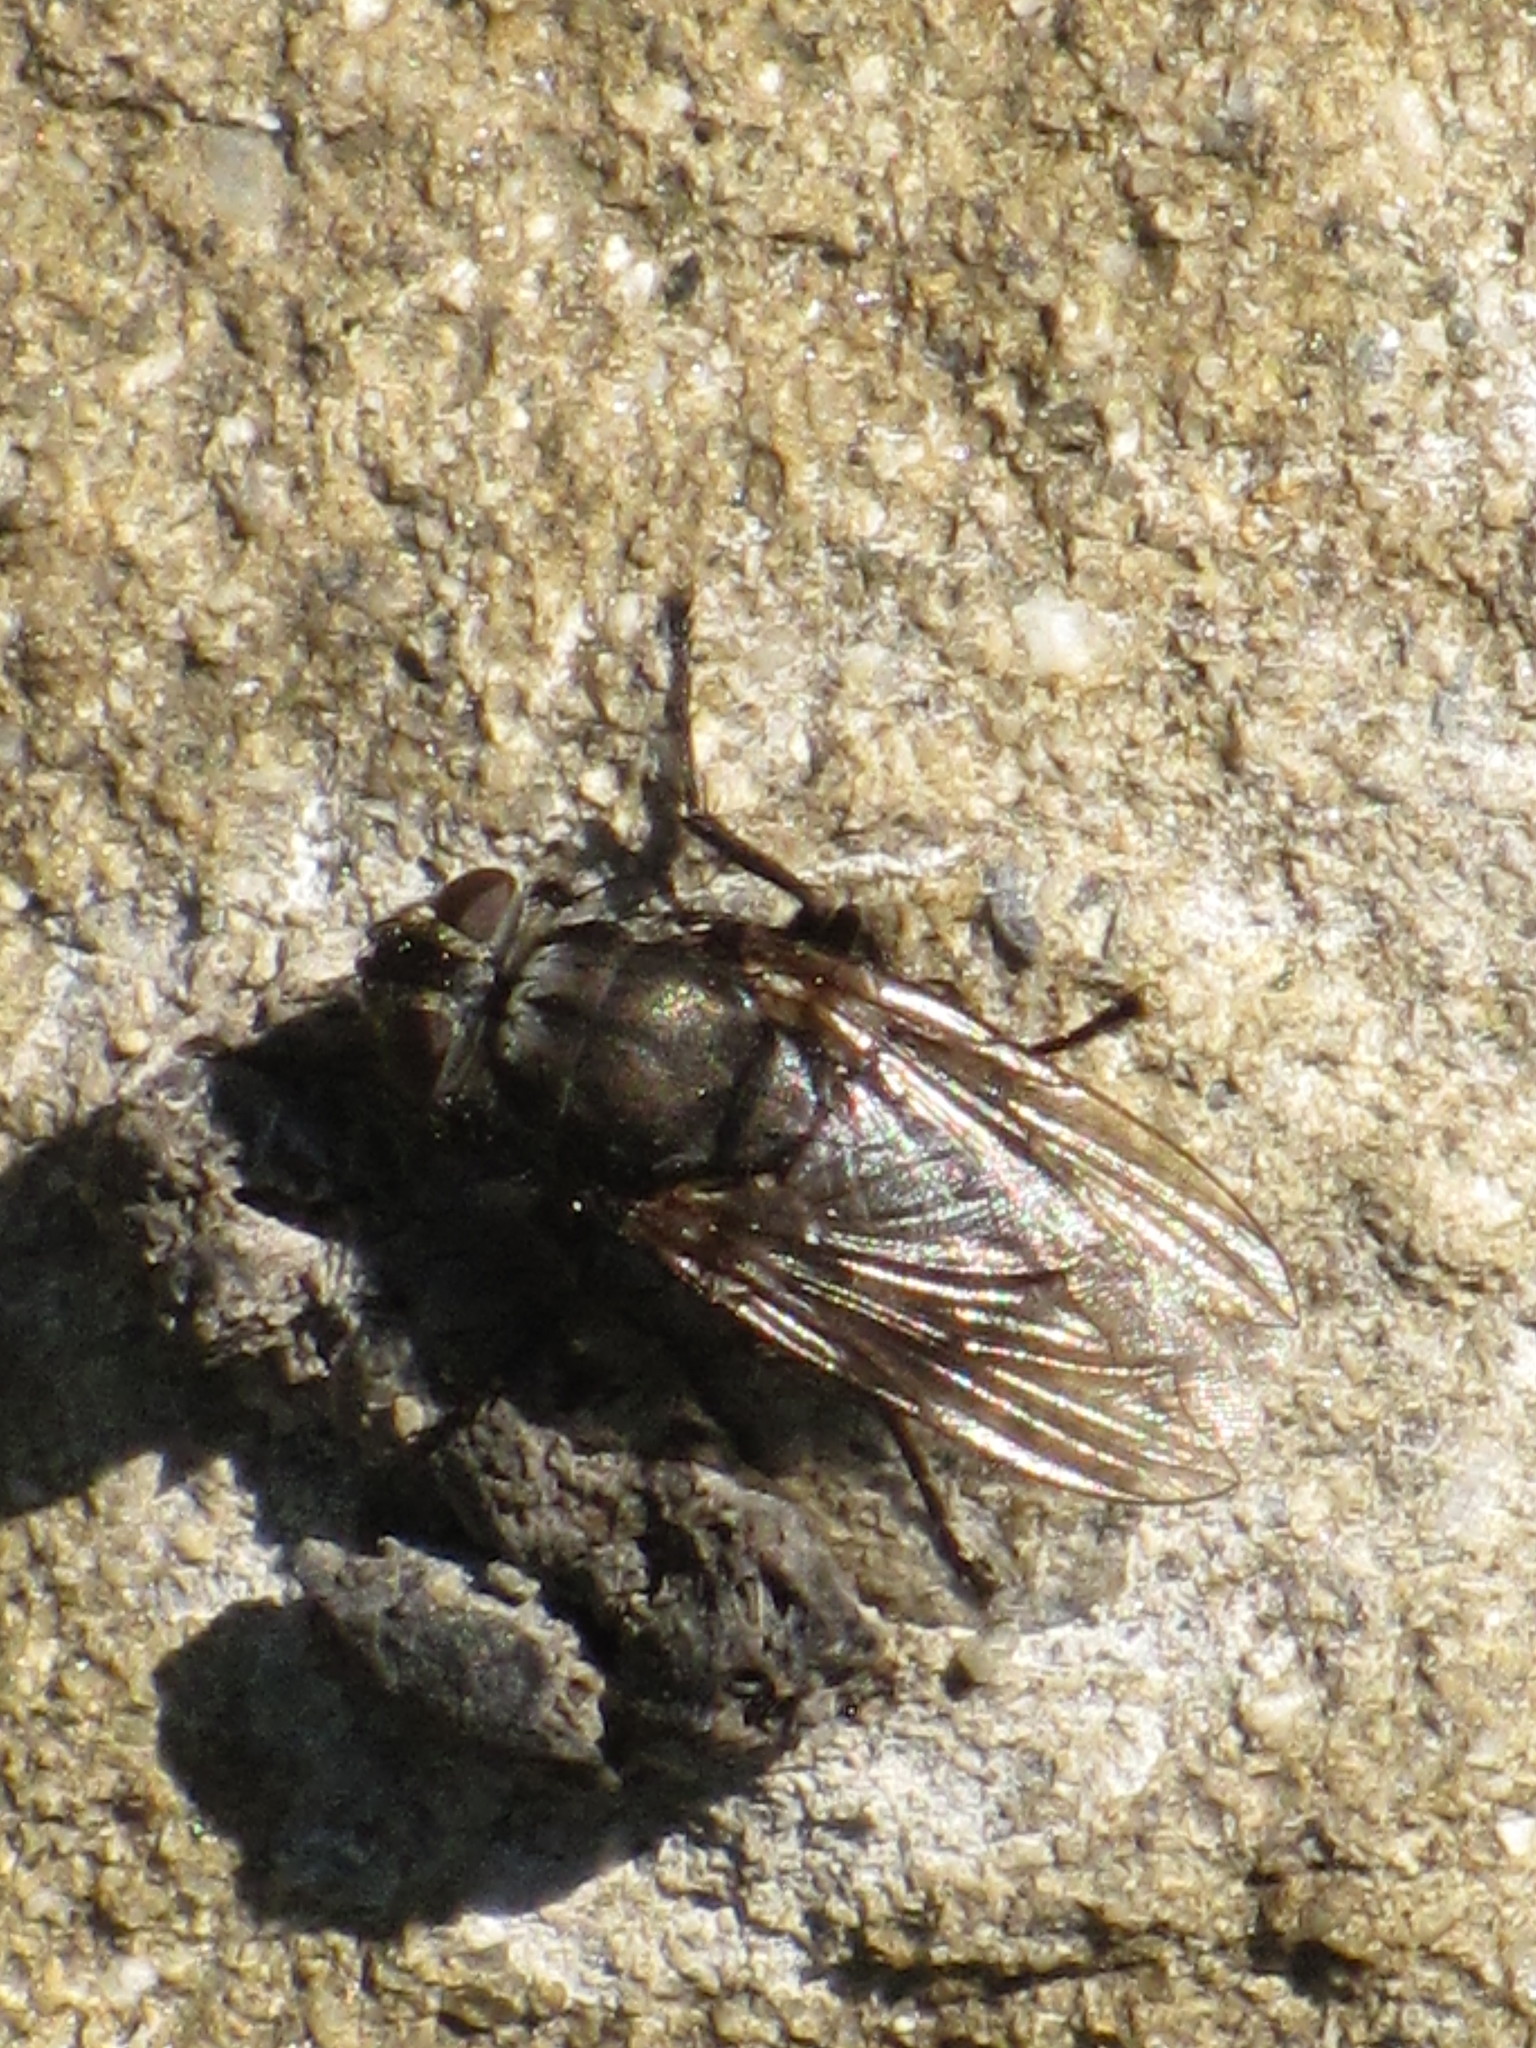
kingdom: Animalia
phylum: Arthropoda
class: Insecta
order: Diptera
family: Polleniidae
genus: Pollenia
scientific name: Pollenia vagabunda
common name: Vagabund cluster fly
